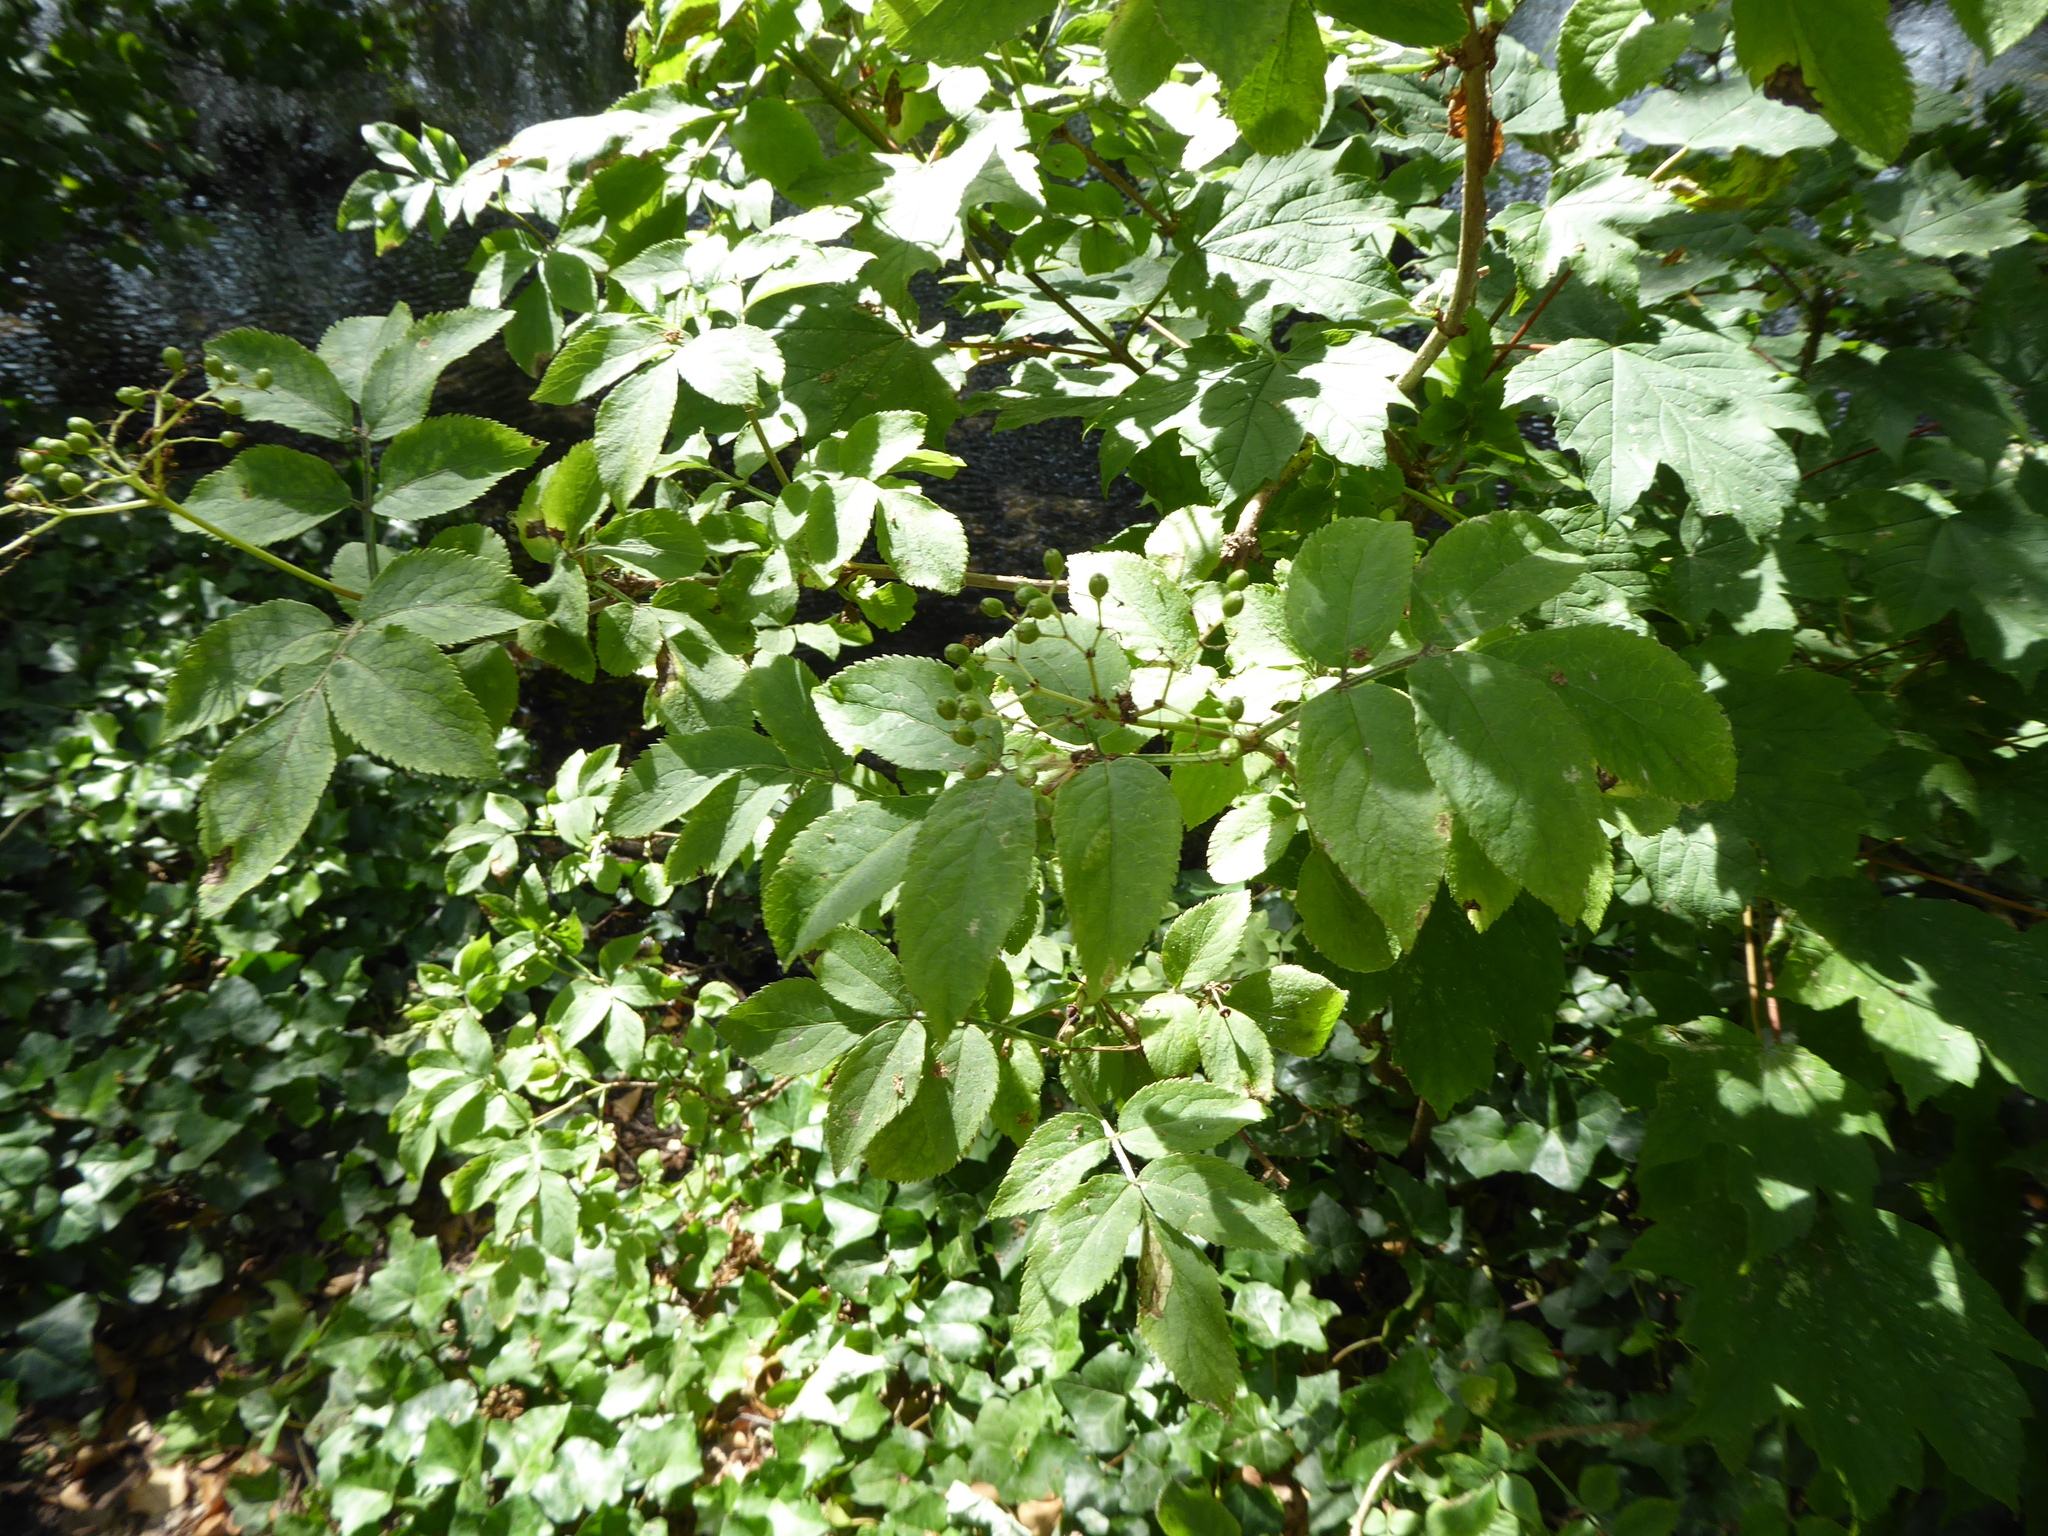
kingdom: Plantae
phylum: Tracheophyta
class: Magnoliopsida
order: Dipsacales
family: Viburnaceae
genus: Sambucus
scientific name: Sambucus nigra
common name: Elder
